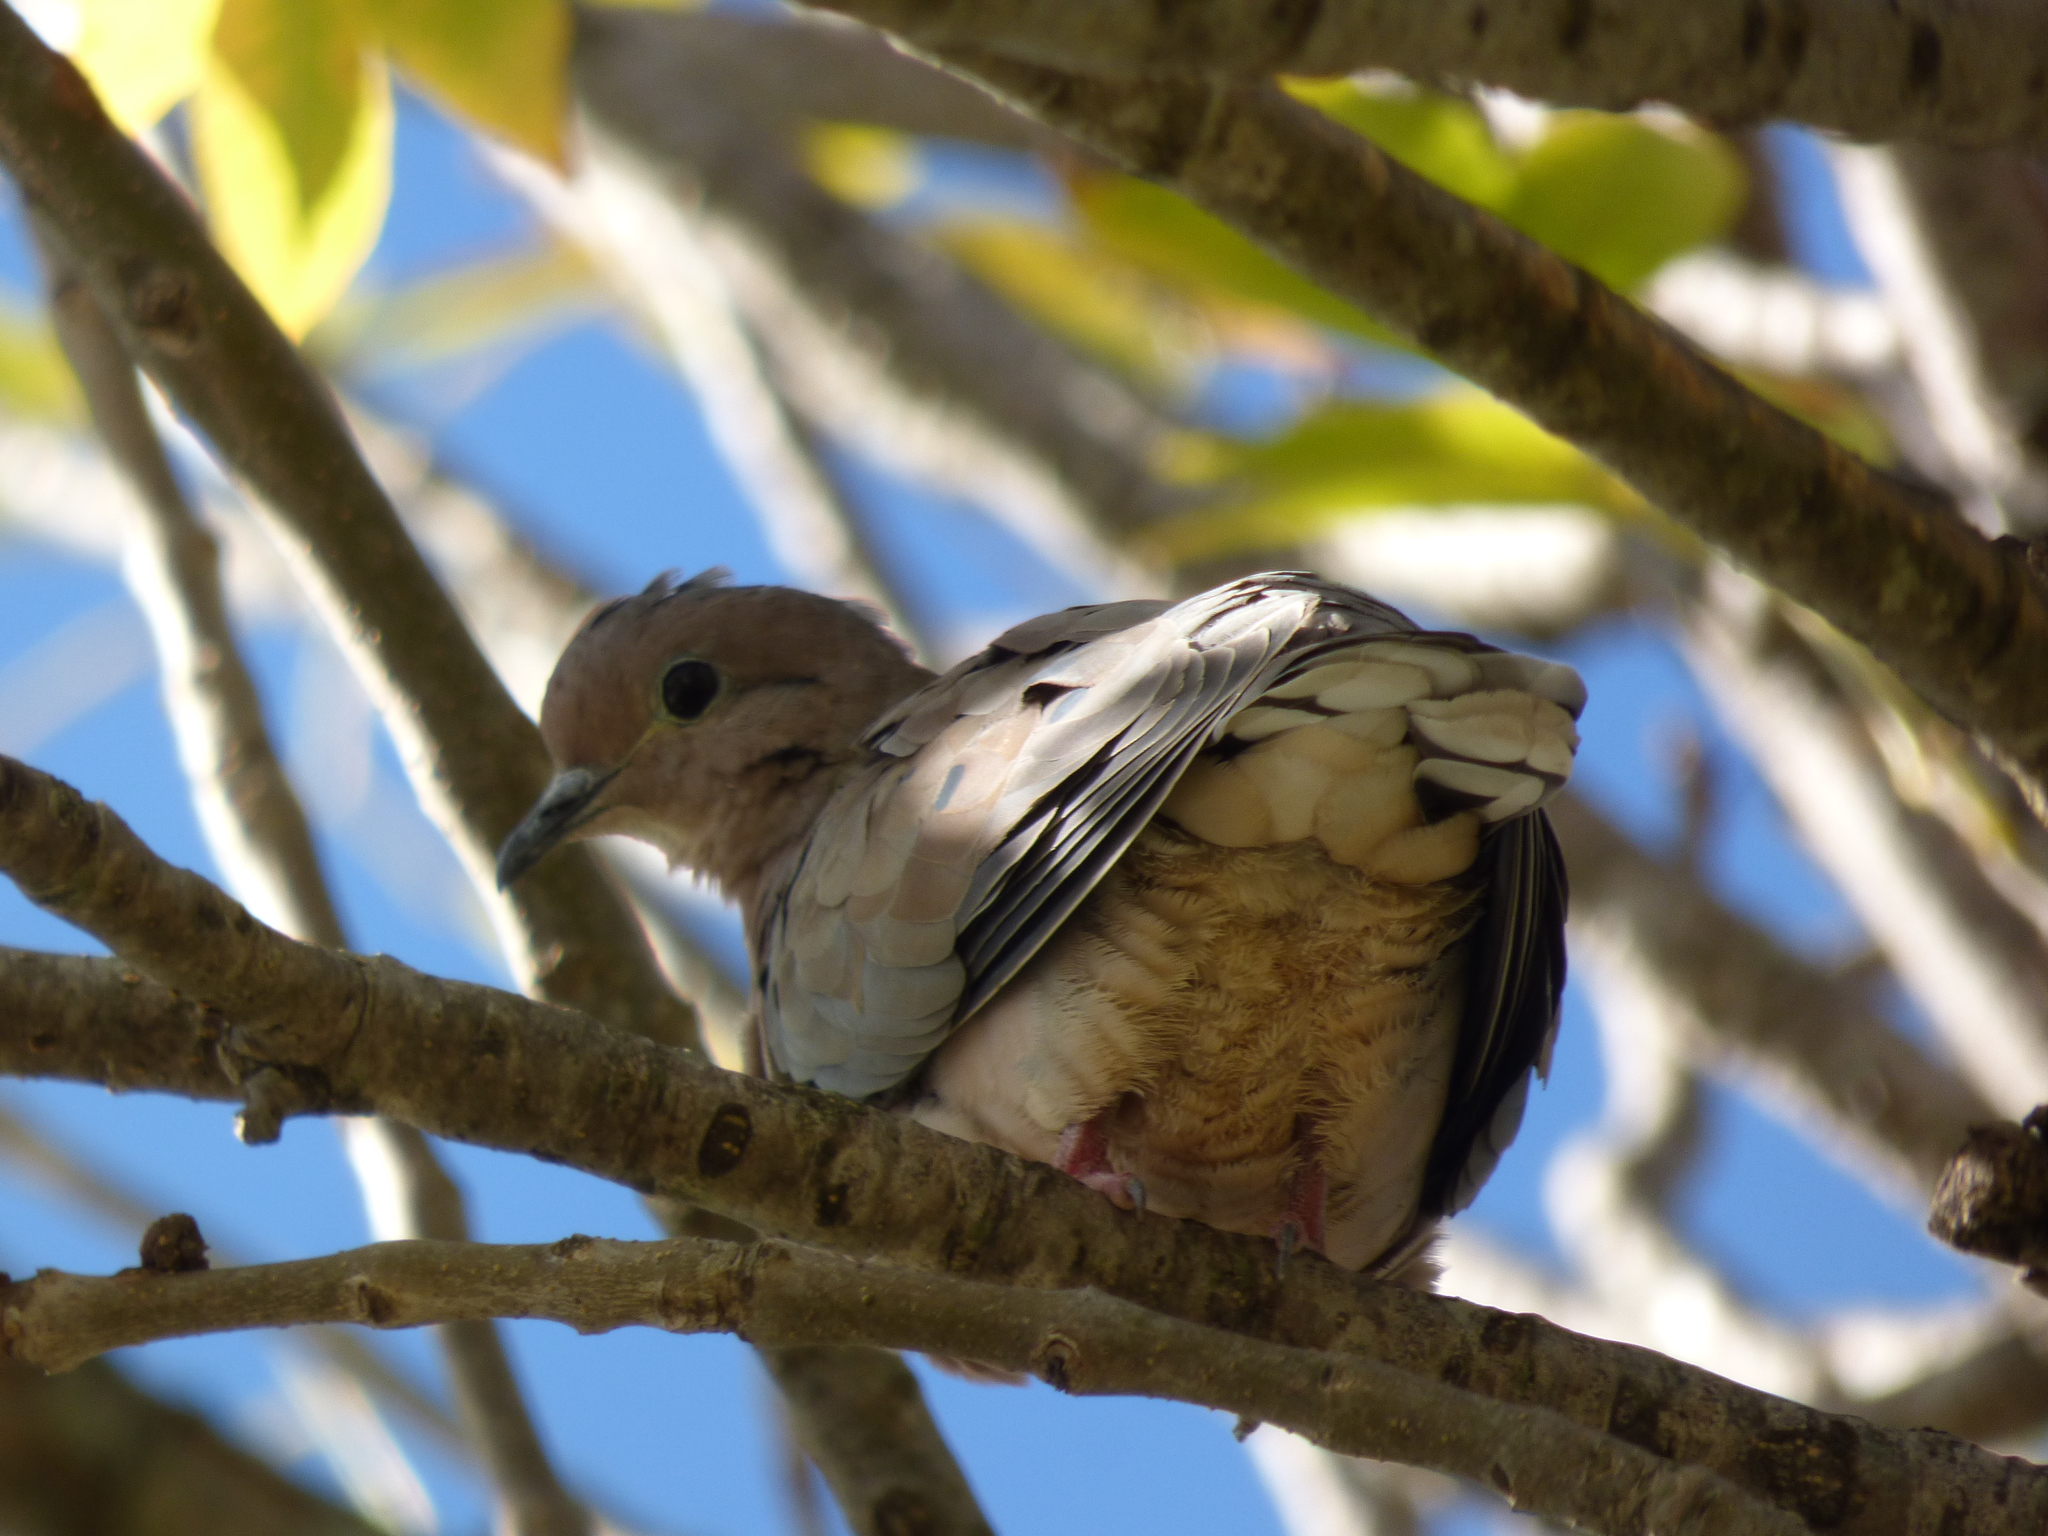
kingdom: Animalia
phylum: Chordata
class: Aves
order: Columbiformes
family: Columbidae
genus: Zenaida
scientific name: Zenaida auriculata
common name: Eared dove
